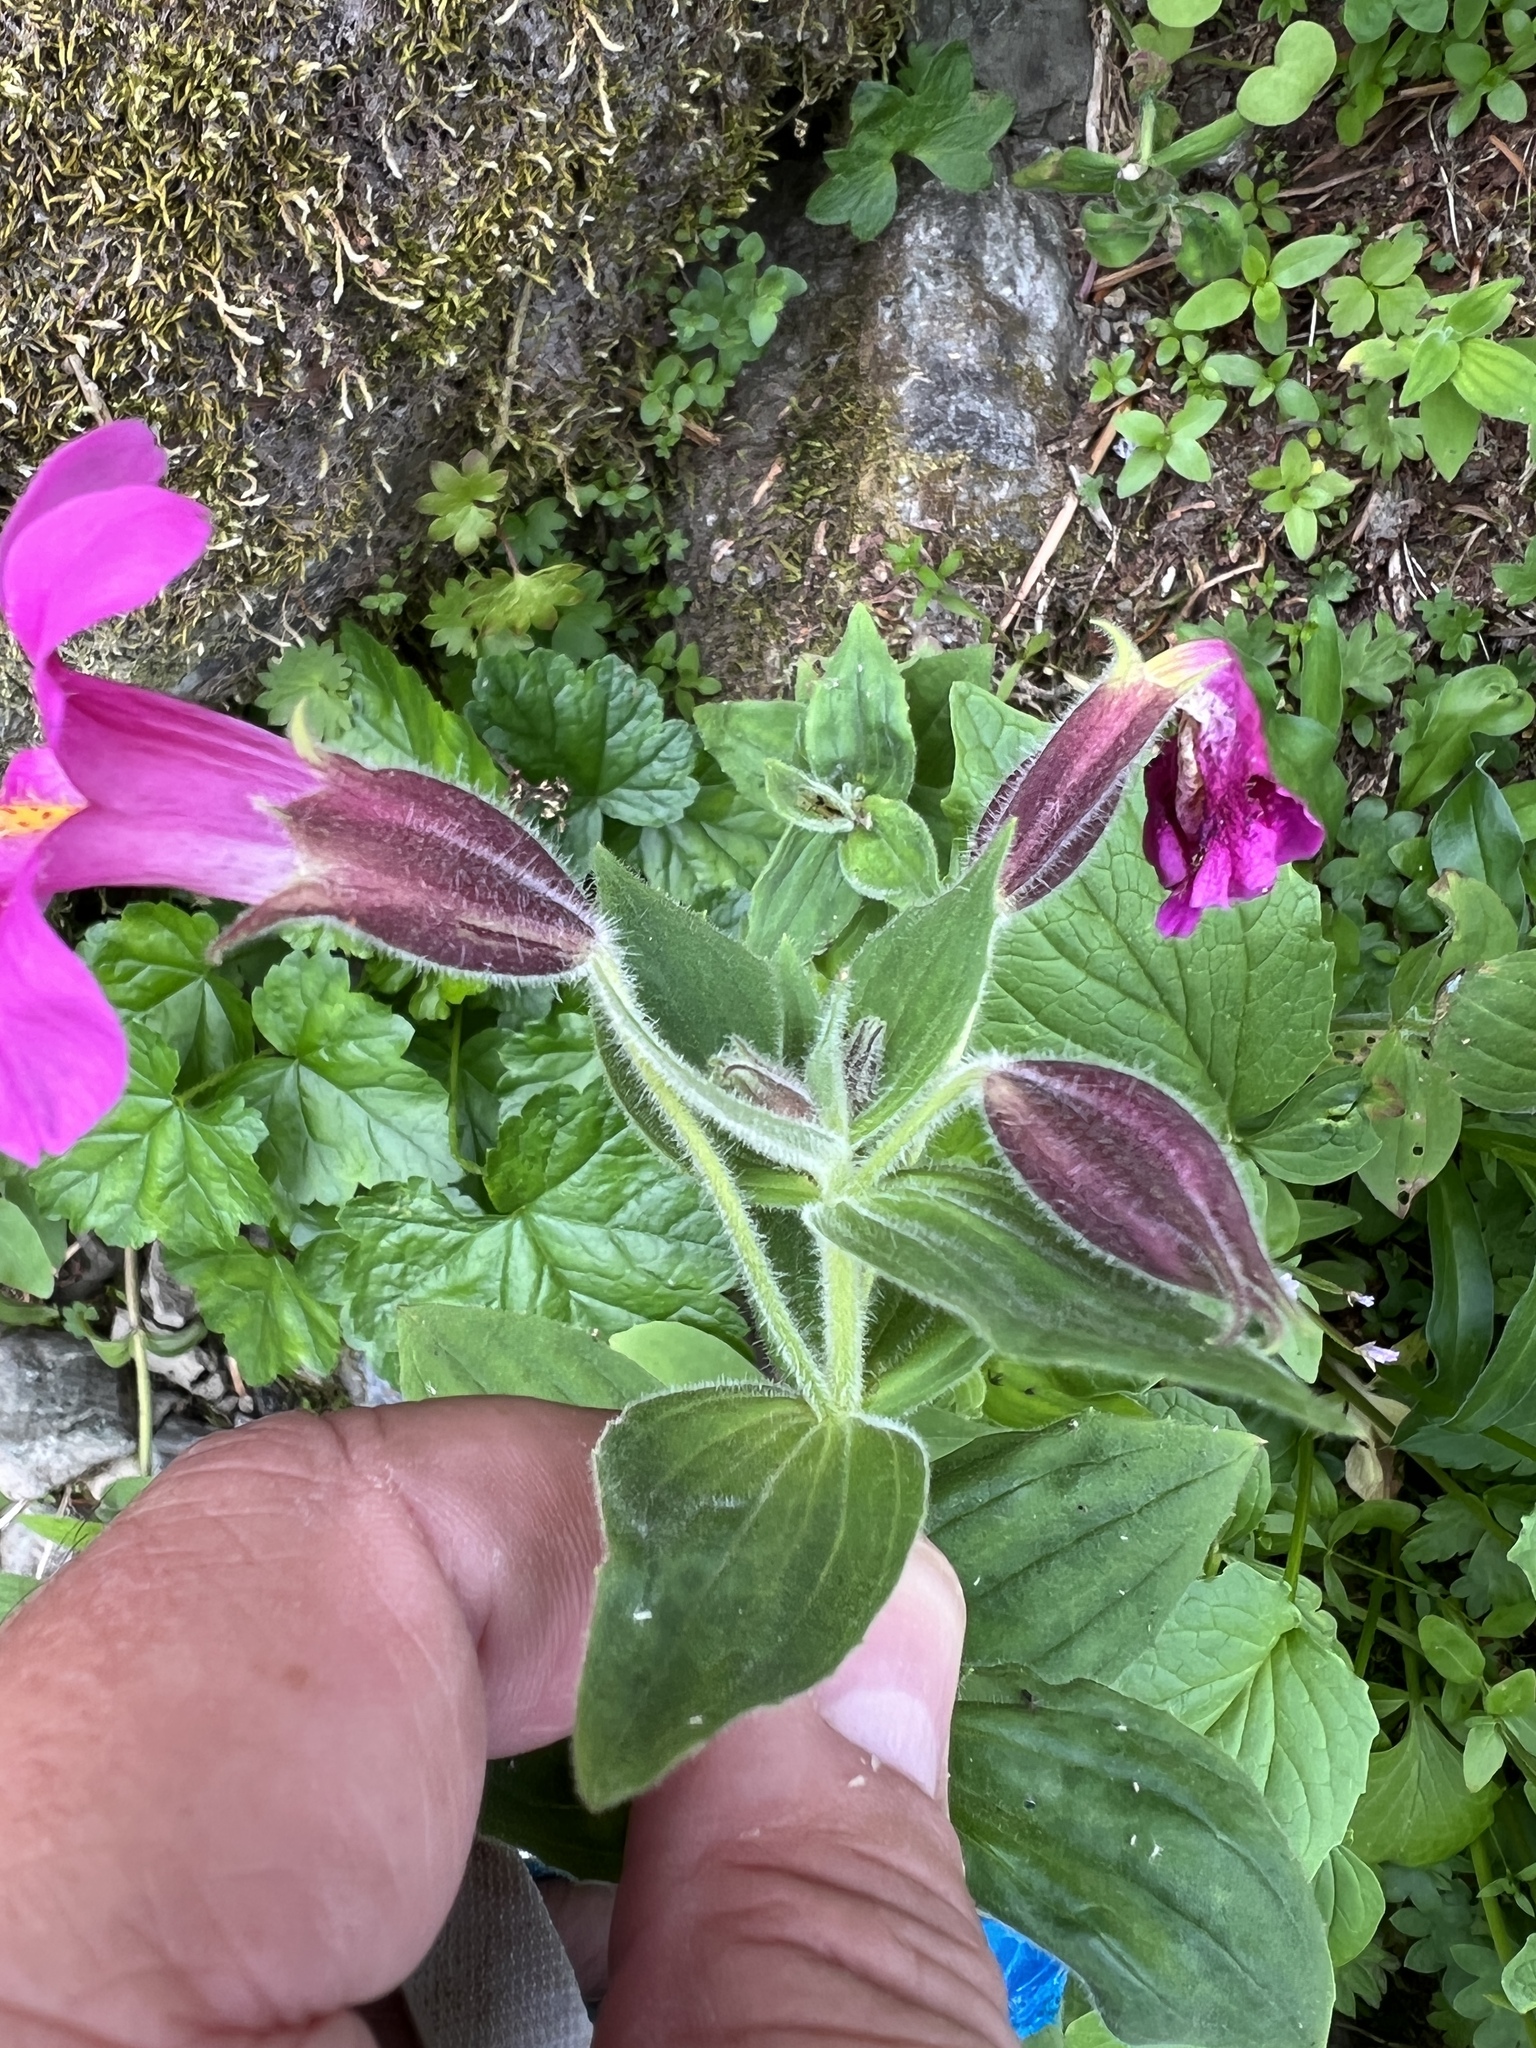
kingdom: Plantae
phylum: Tracheophyta
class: Magnoliopsida
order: Lamiales
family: Phrymaceae
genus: Erythranthe
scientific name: Erythranthe lewisii
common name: Lewis's monkey-flower
